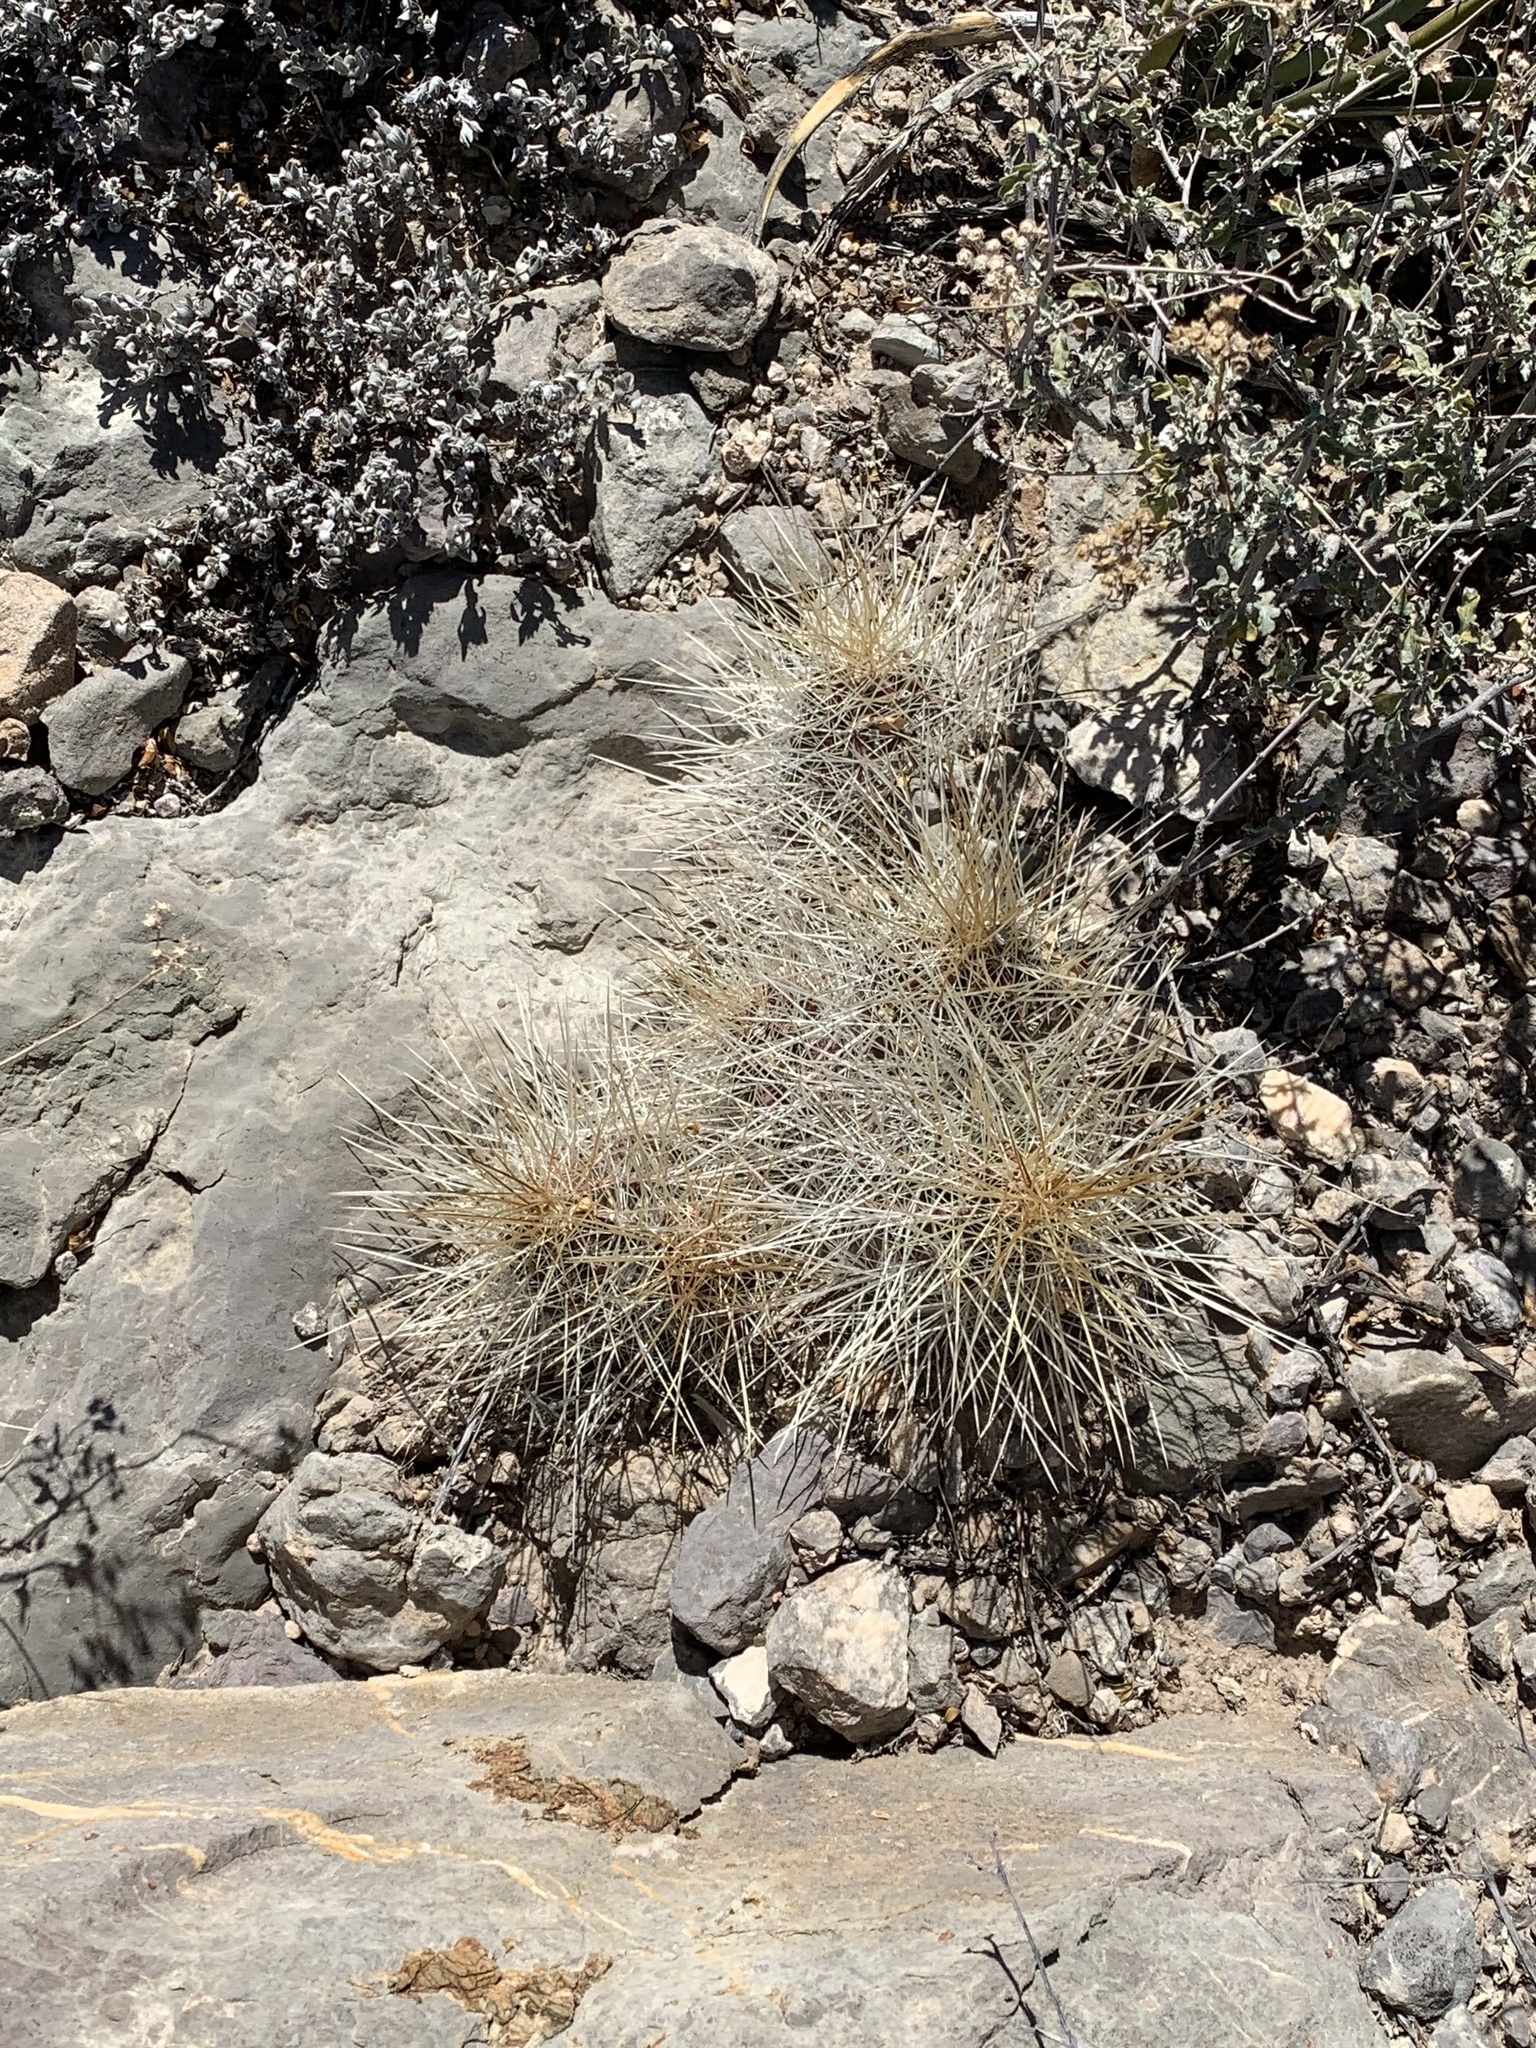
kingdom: Plantae
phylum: Tracheophyta
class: Magnoliopsida
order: Caryophyllales
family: Cactaceae
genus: Echinocereus
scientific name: Echinocereus stramineus
